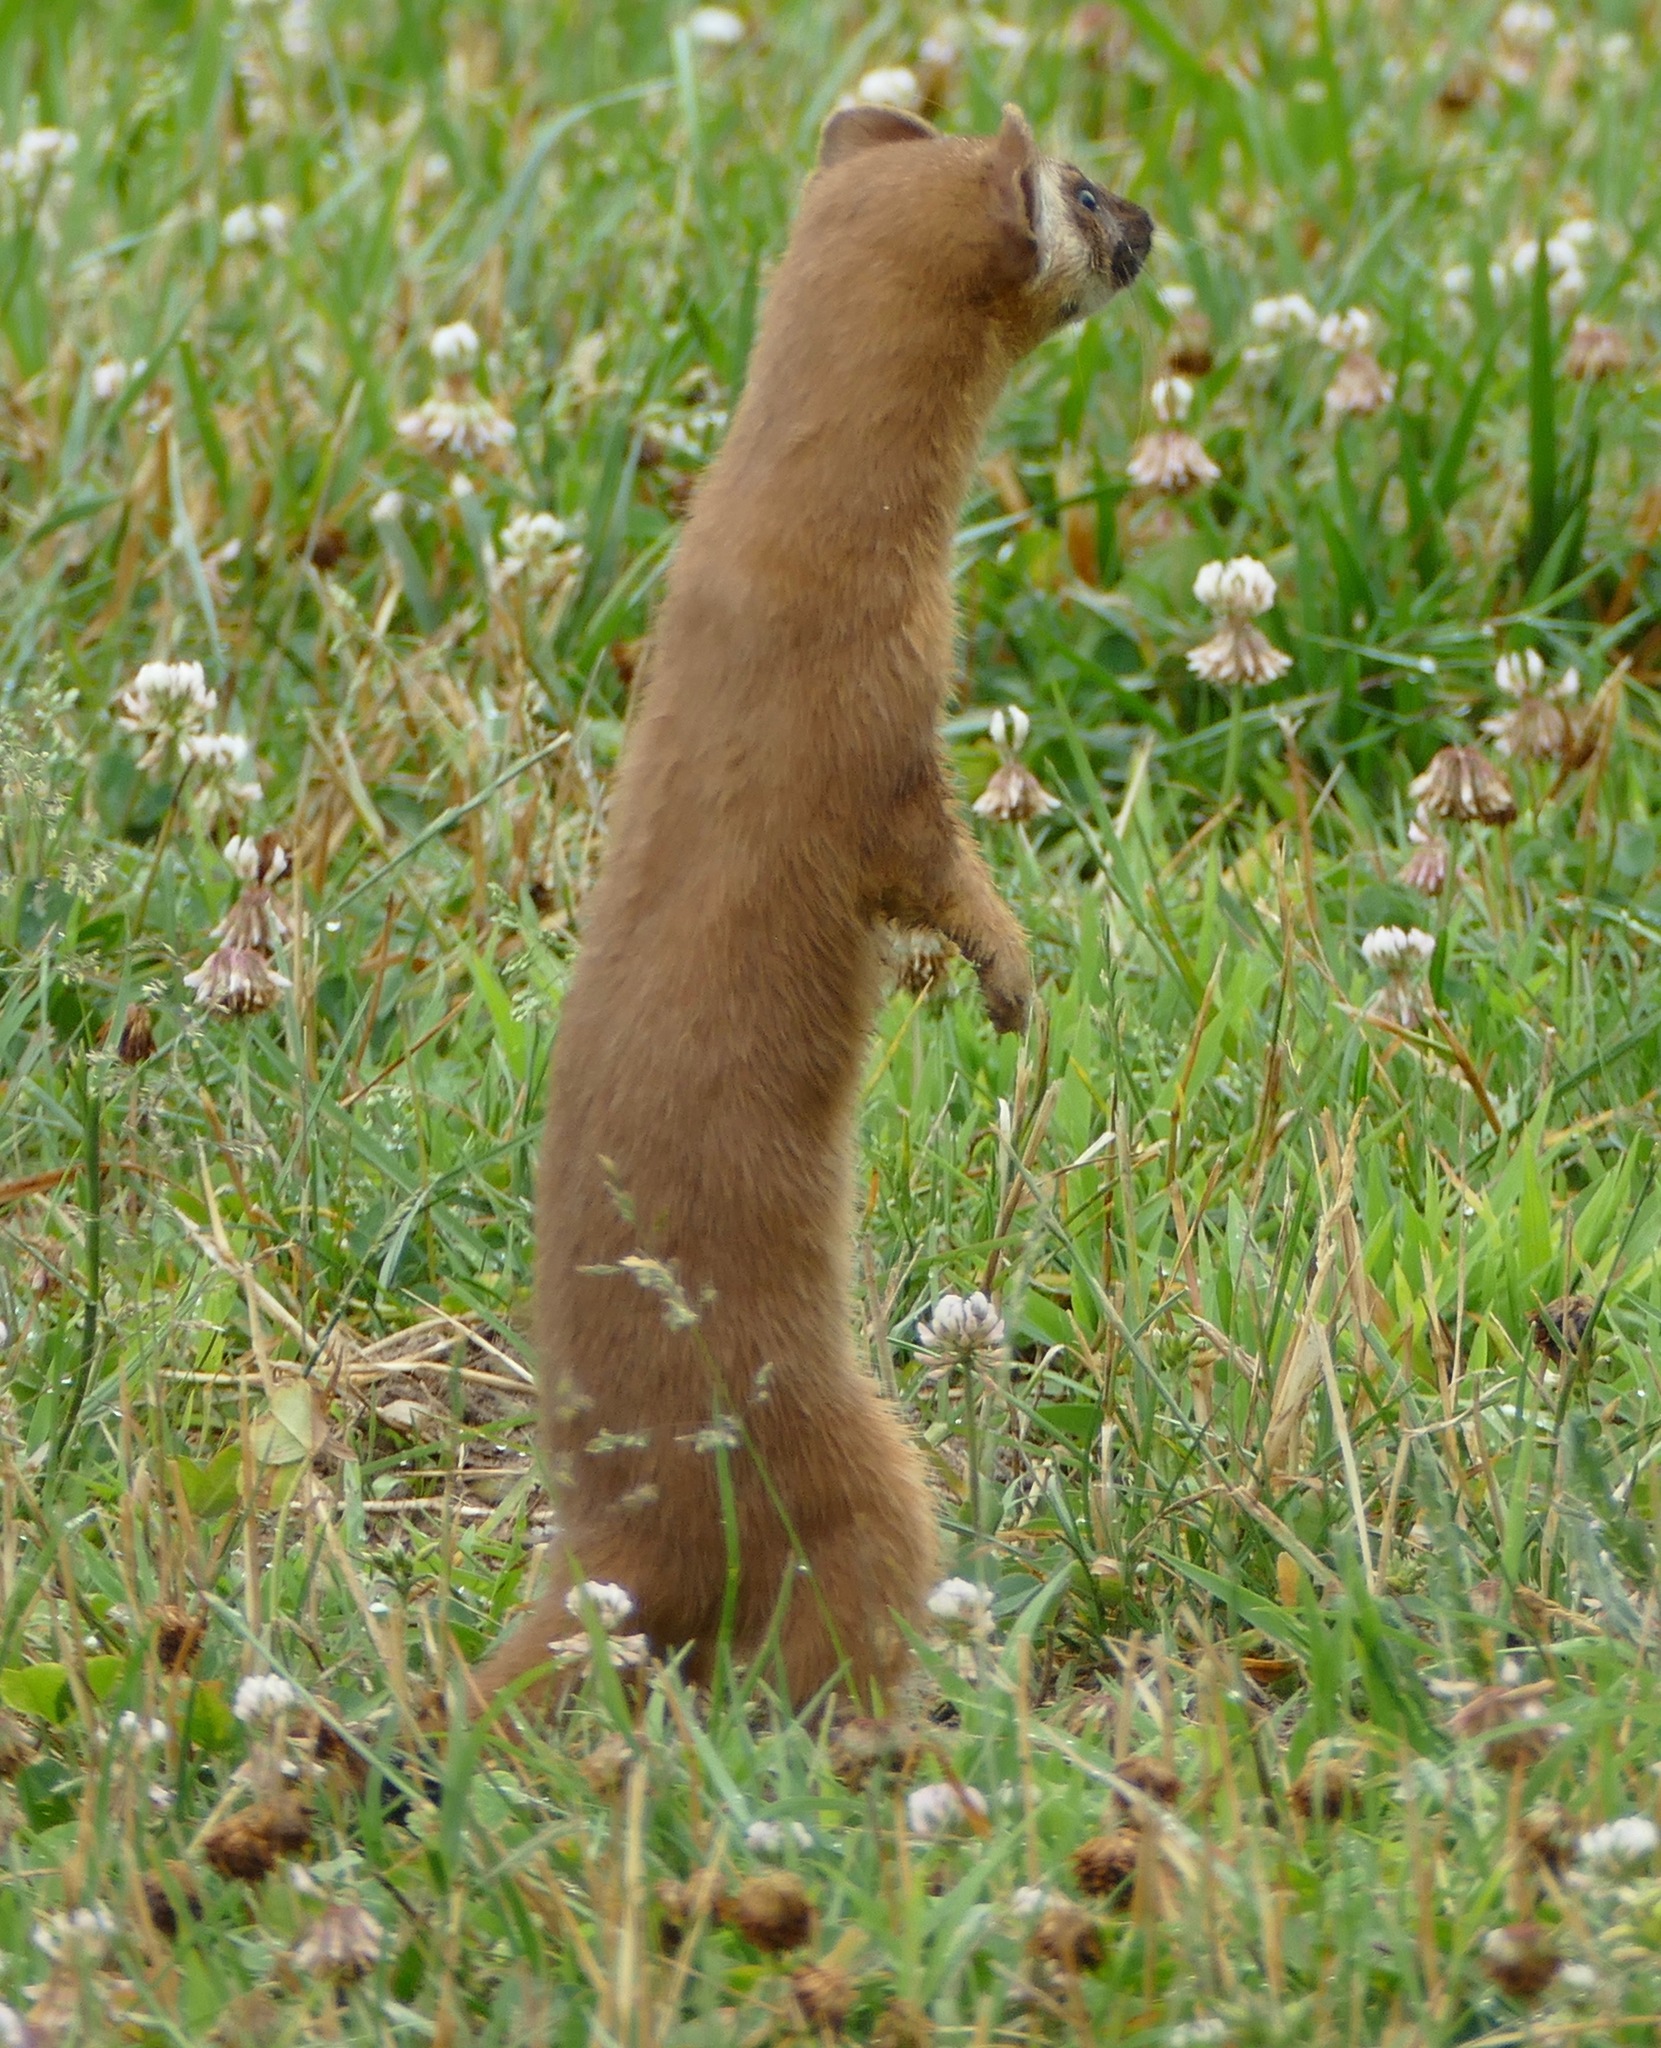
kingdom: Animalia
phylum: Chordata
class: Mammalia
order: Carnivora
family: Mustelidae
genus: Mustela
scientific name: Mustela
